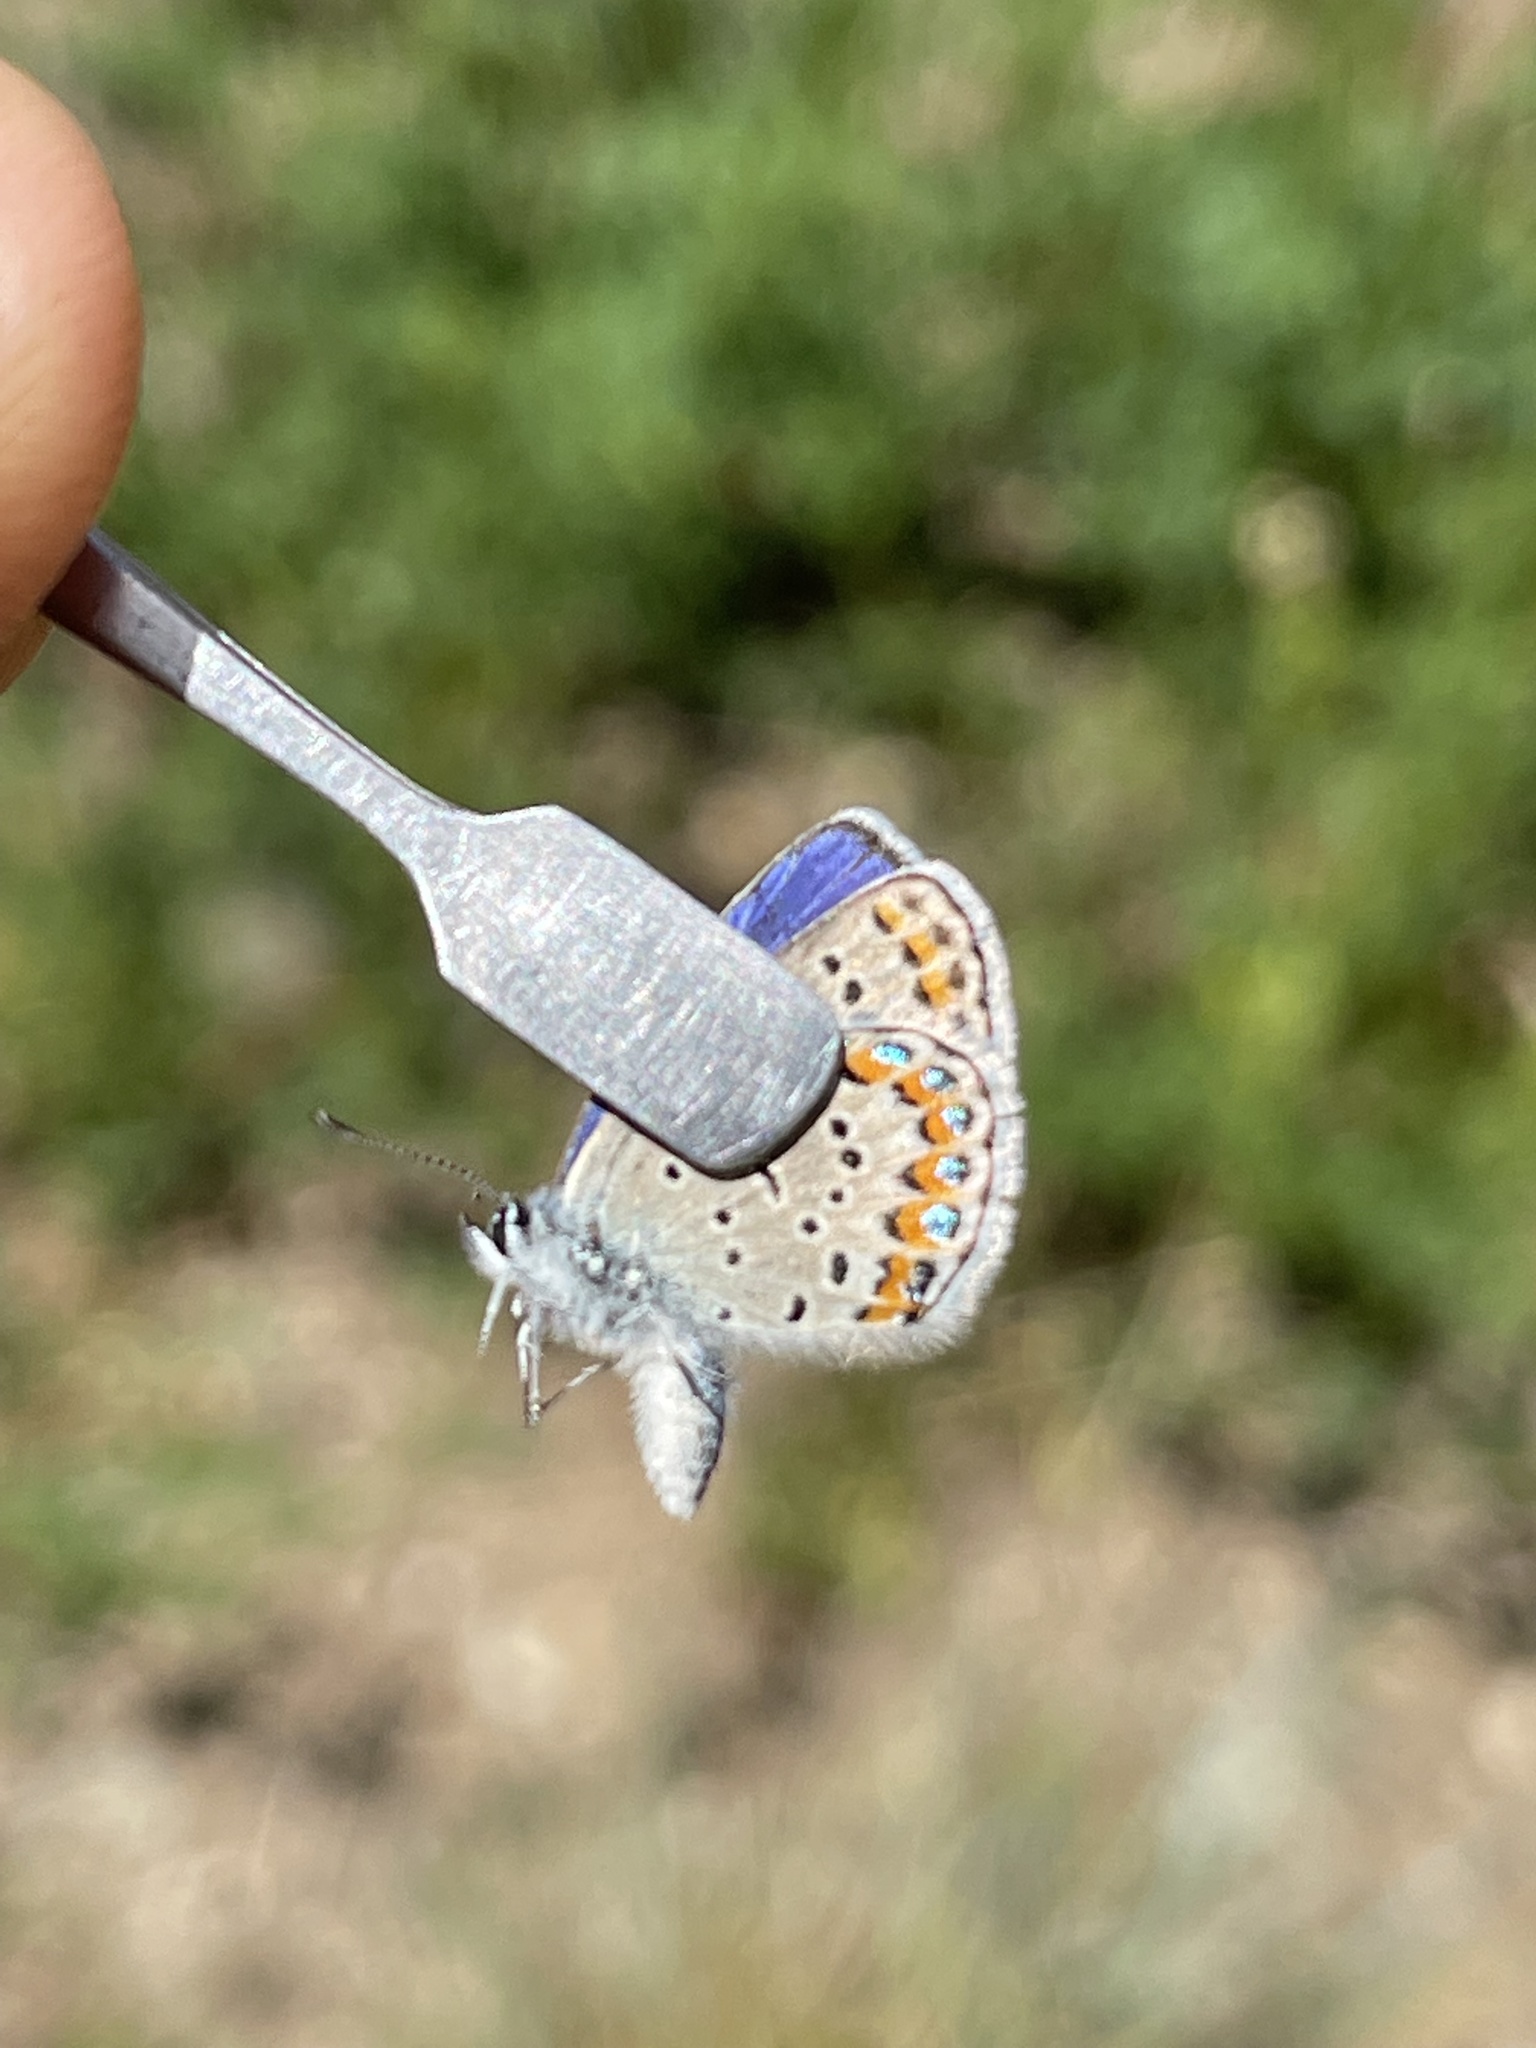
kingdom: Animalia
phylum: Arthropoda
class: Insecta
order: Lepidoptera
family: Lycaenidae
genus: Lycaeides
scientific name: Lycaeides melissa
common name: Melissa blue
